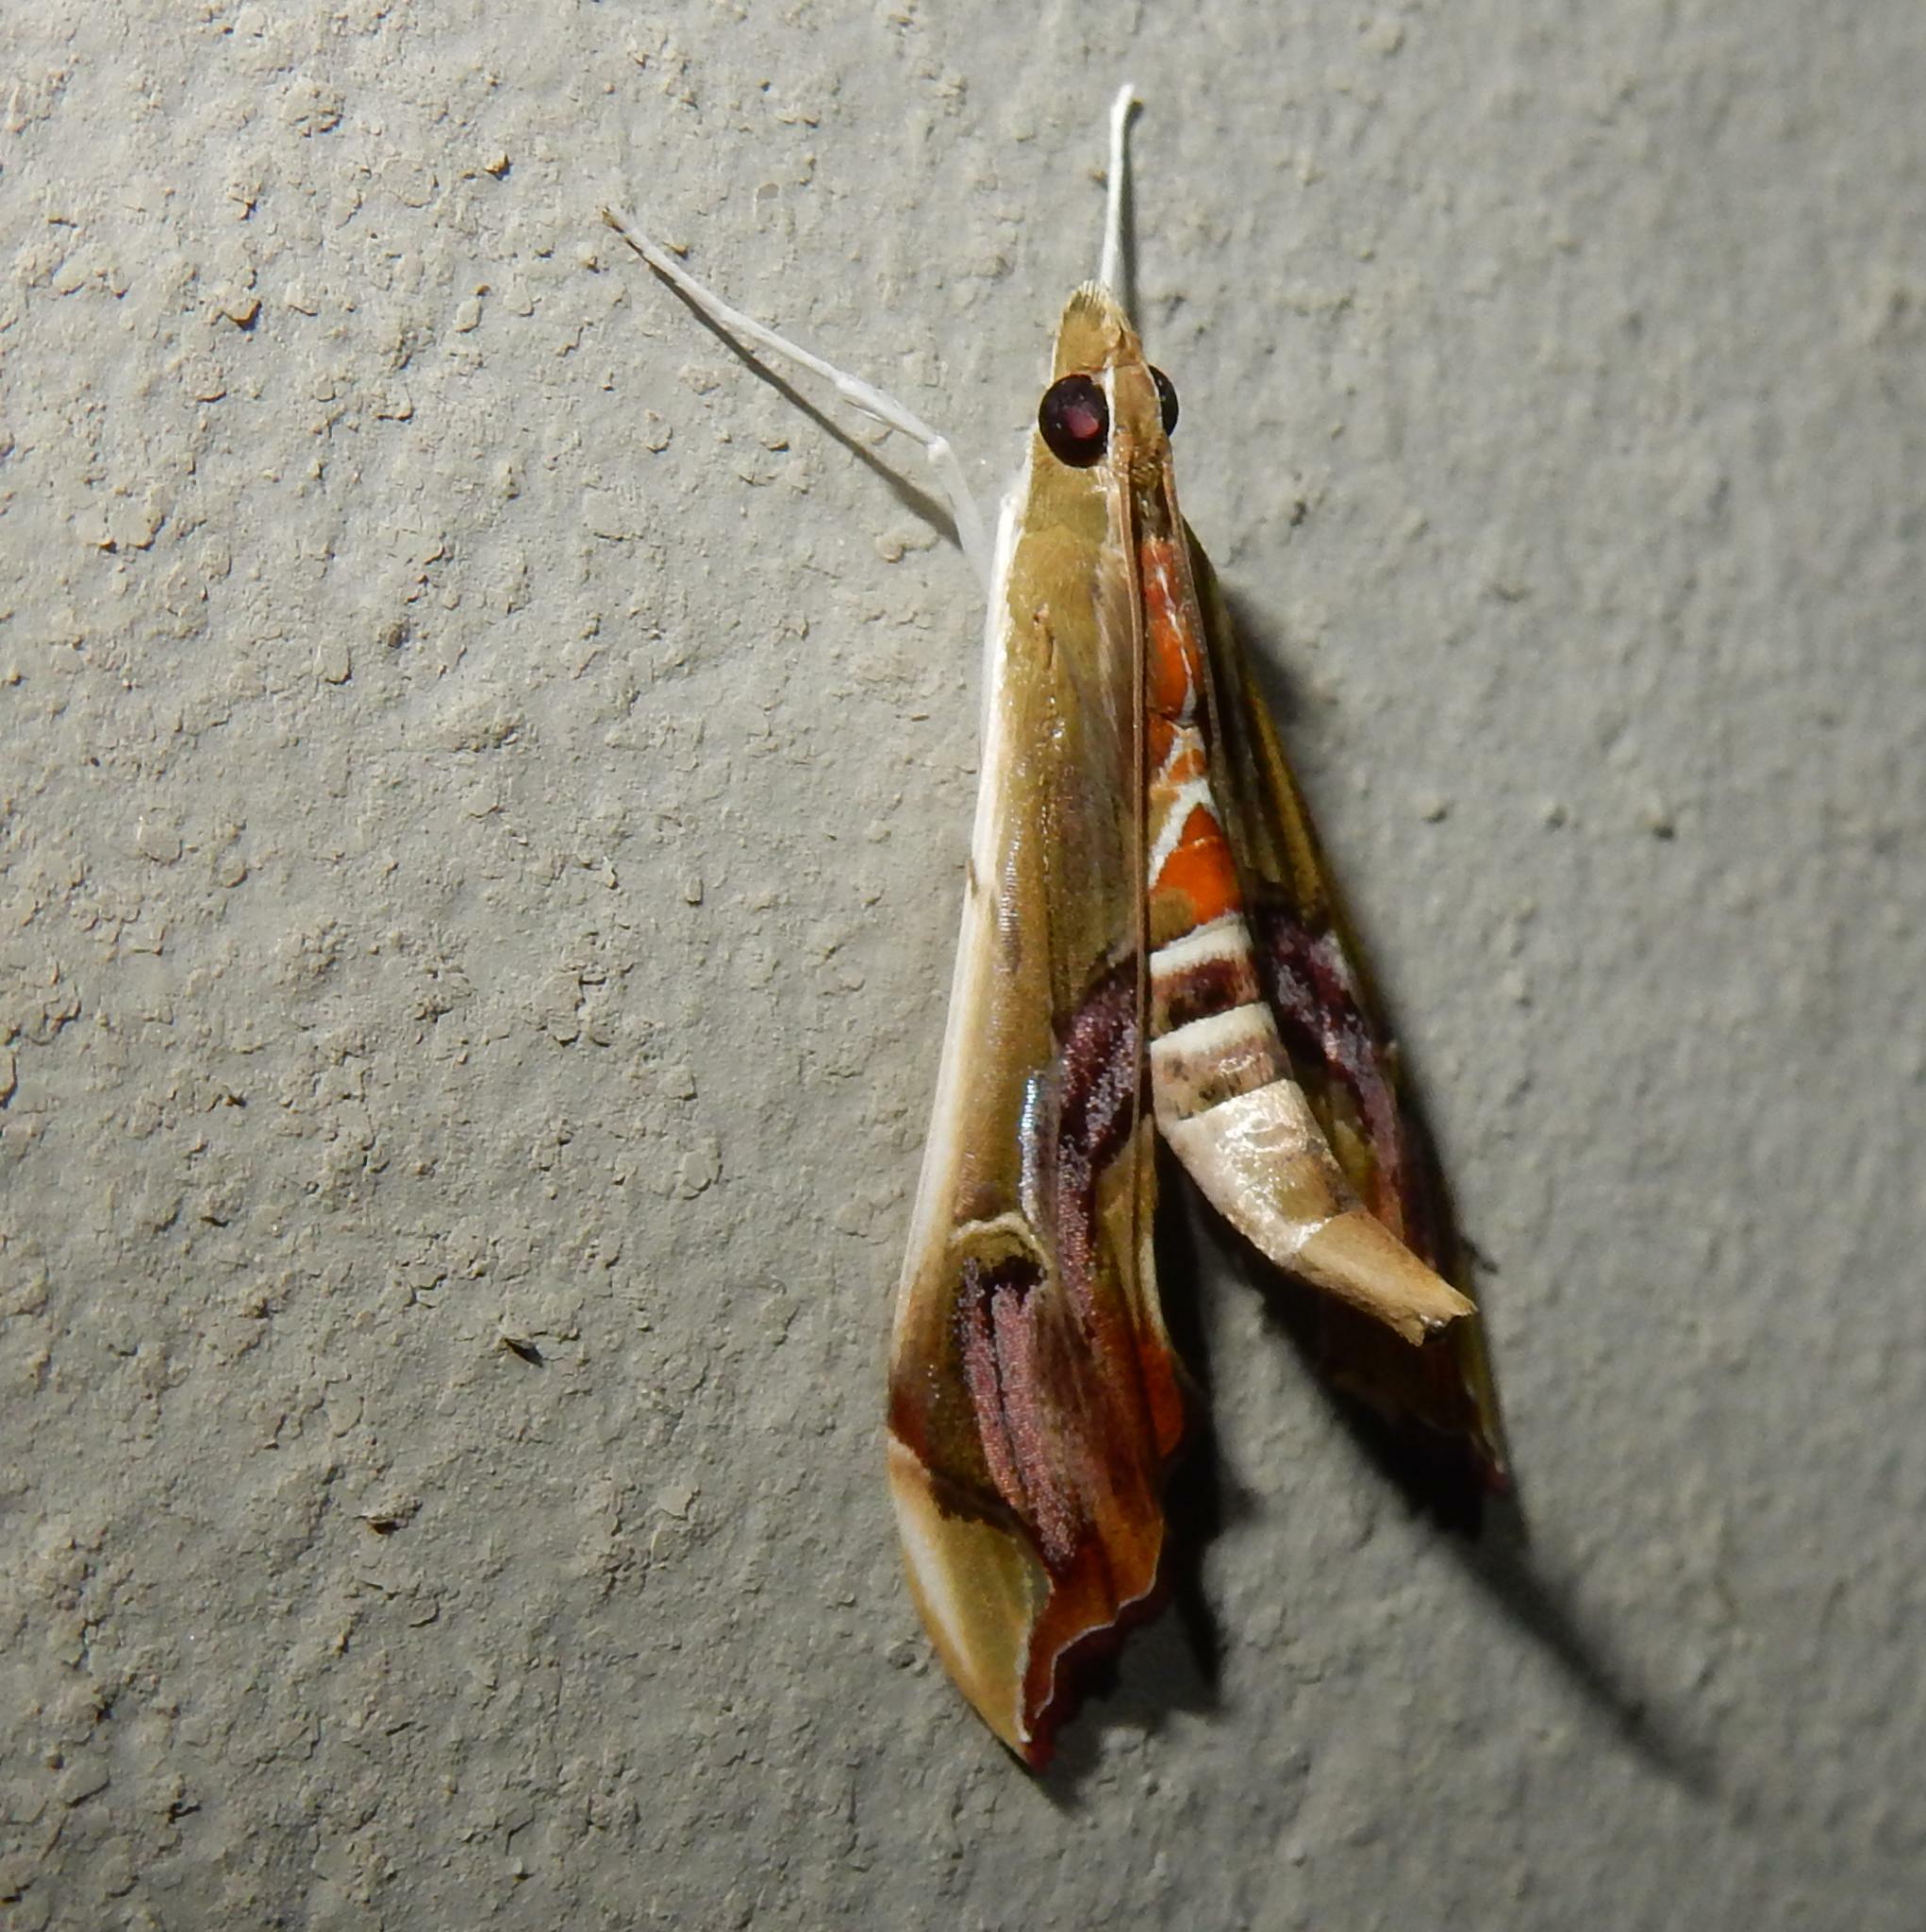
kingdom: Animalia
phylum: Arthropoda
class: Insecta
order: Lepidoptera
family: Crambidae
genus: Agathodes
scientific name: Agathodes musivalis
